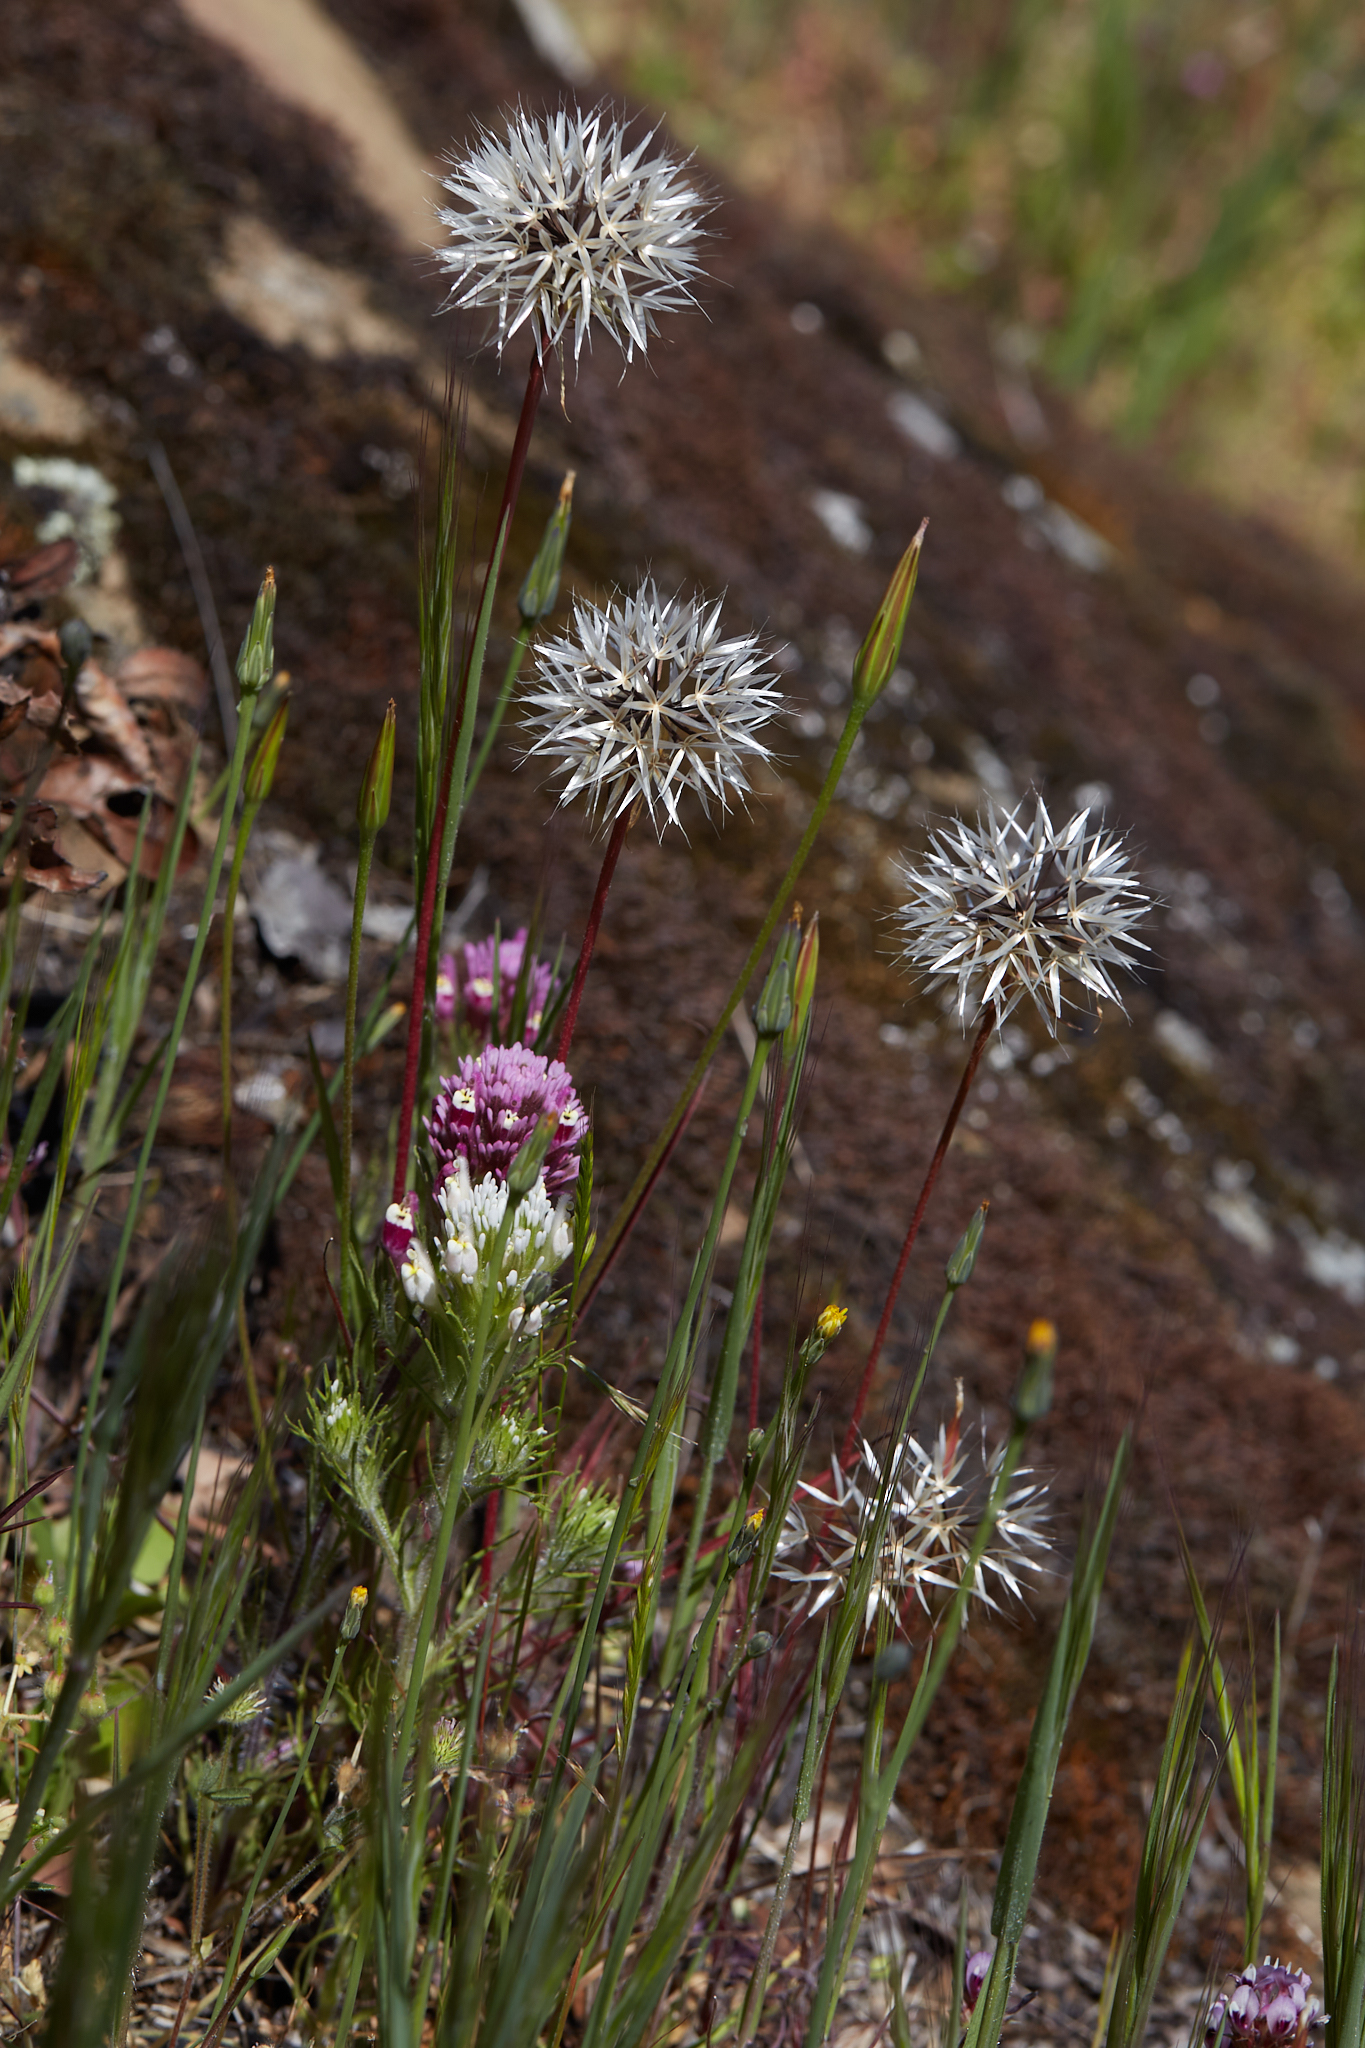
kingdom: Plantae
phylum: Tracheophyta
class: Magnoliopsida
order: Asterales
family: Asteraceae
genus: Microseris
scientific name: Microseris lindleyi
